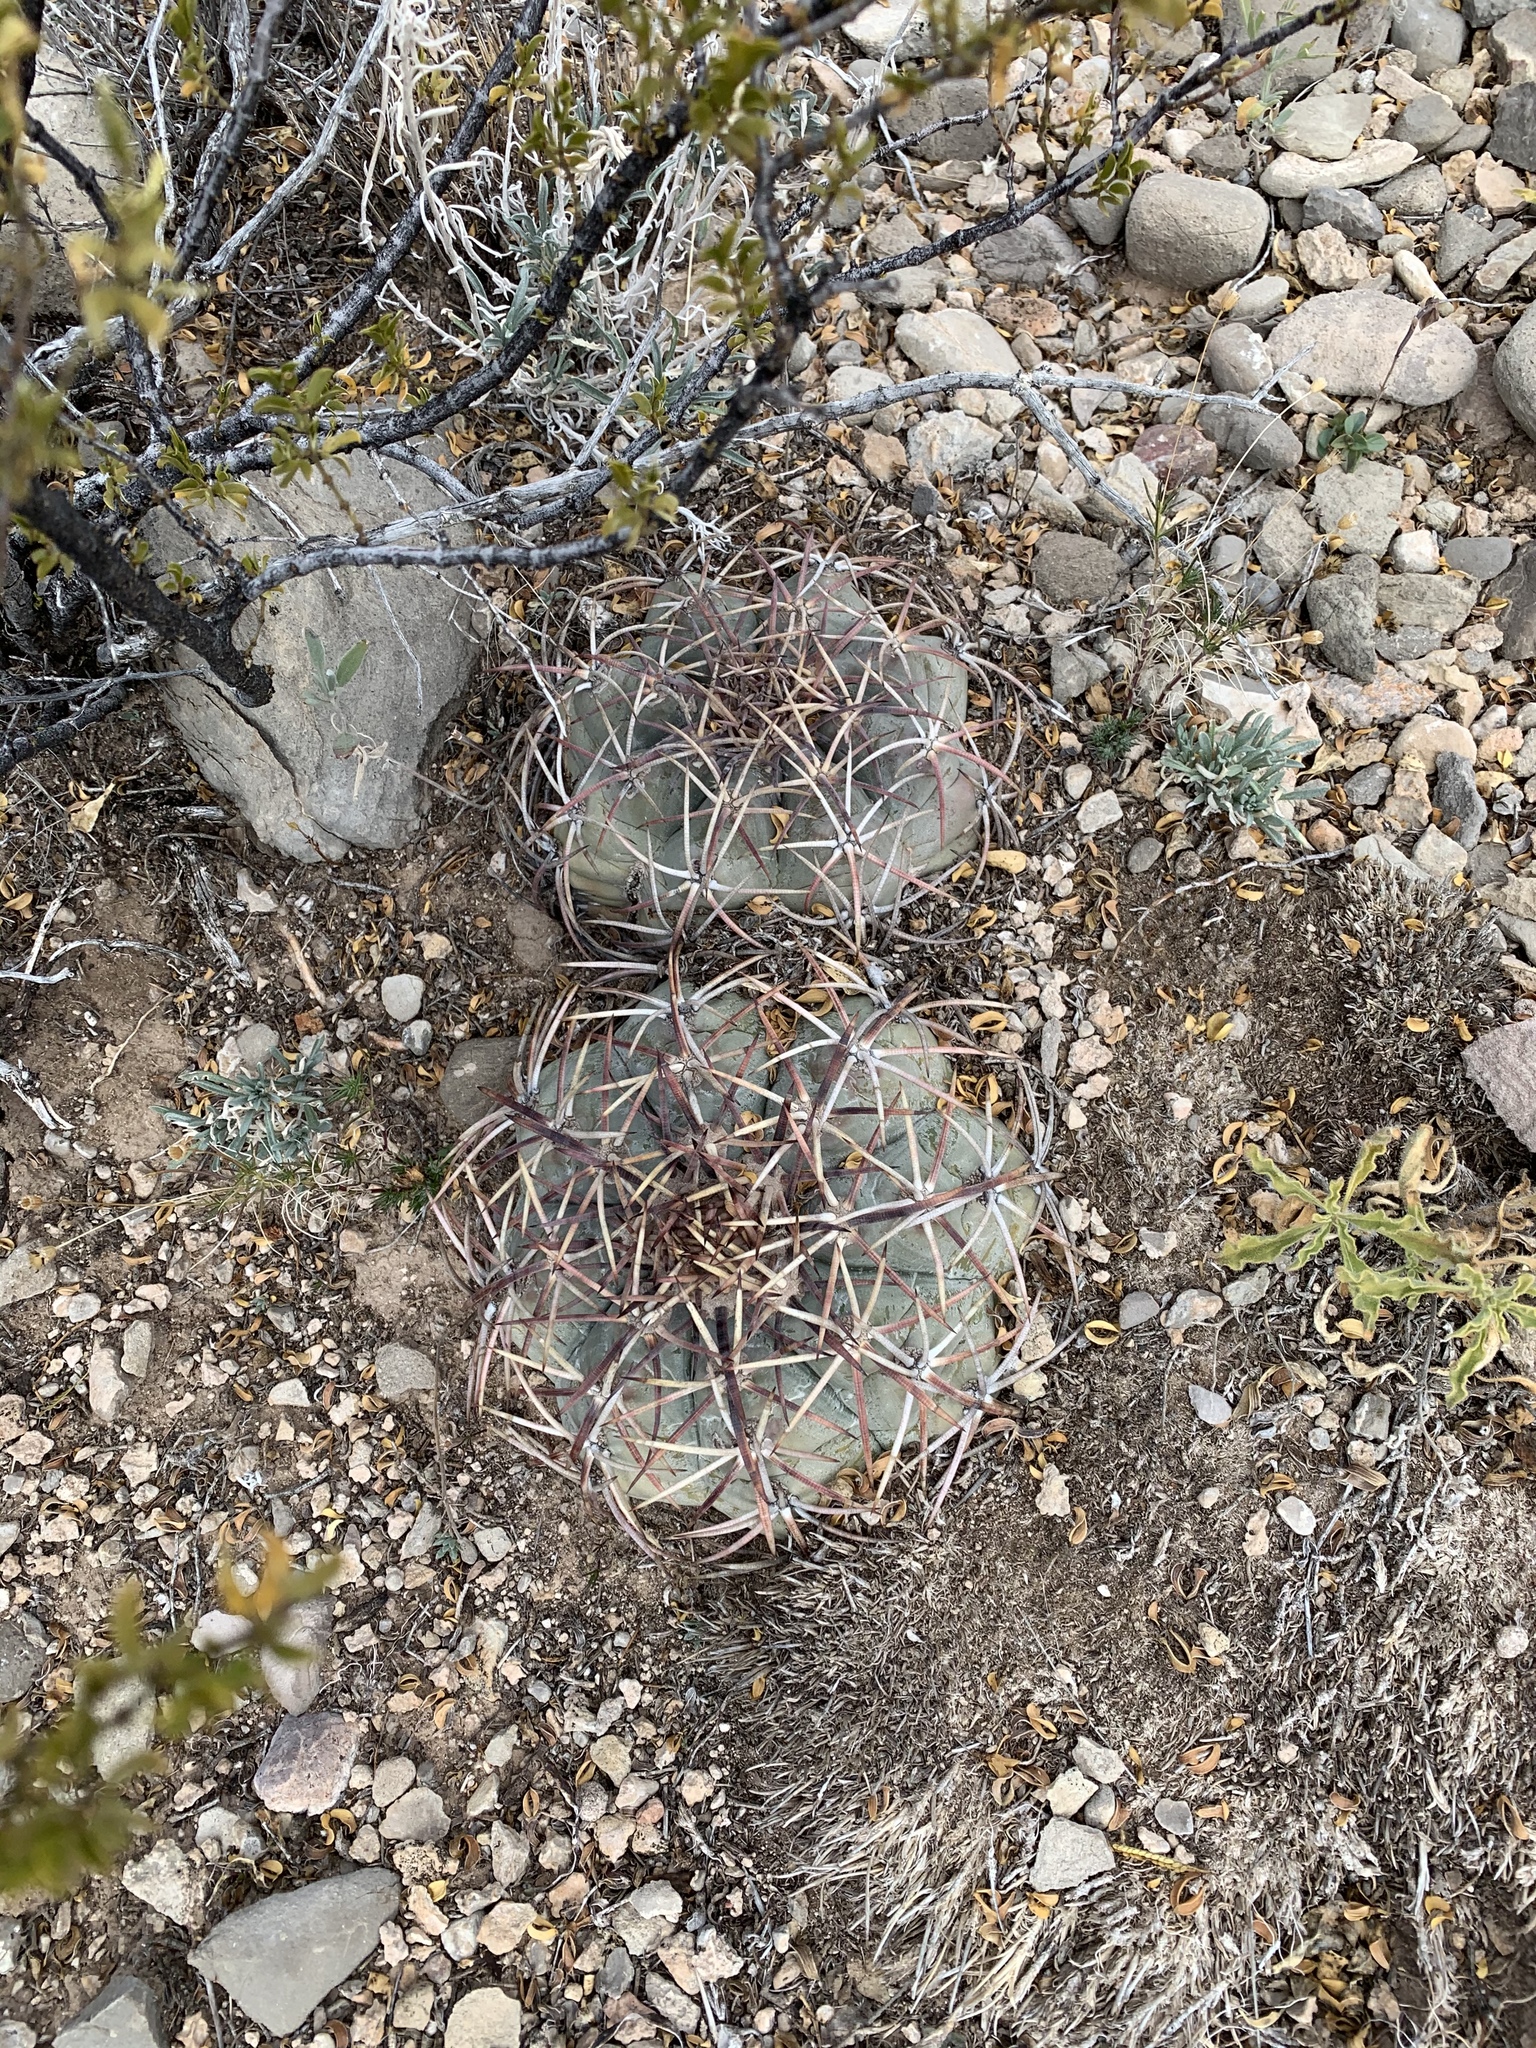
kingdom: Plantae
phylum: Tracheophyta
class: Magnoliopsida
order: Caryophyllales
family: Cactaceae
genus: Echinocactus
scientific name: Echinocactus horizonthalonius
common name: Devilshead
